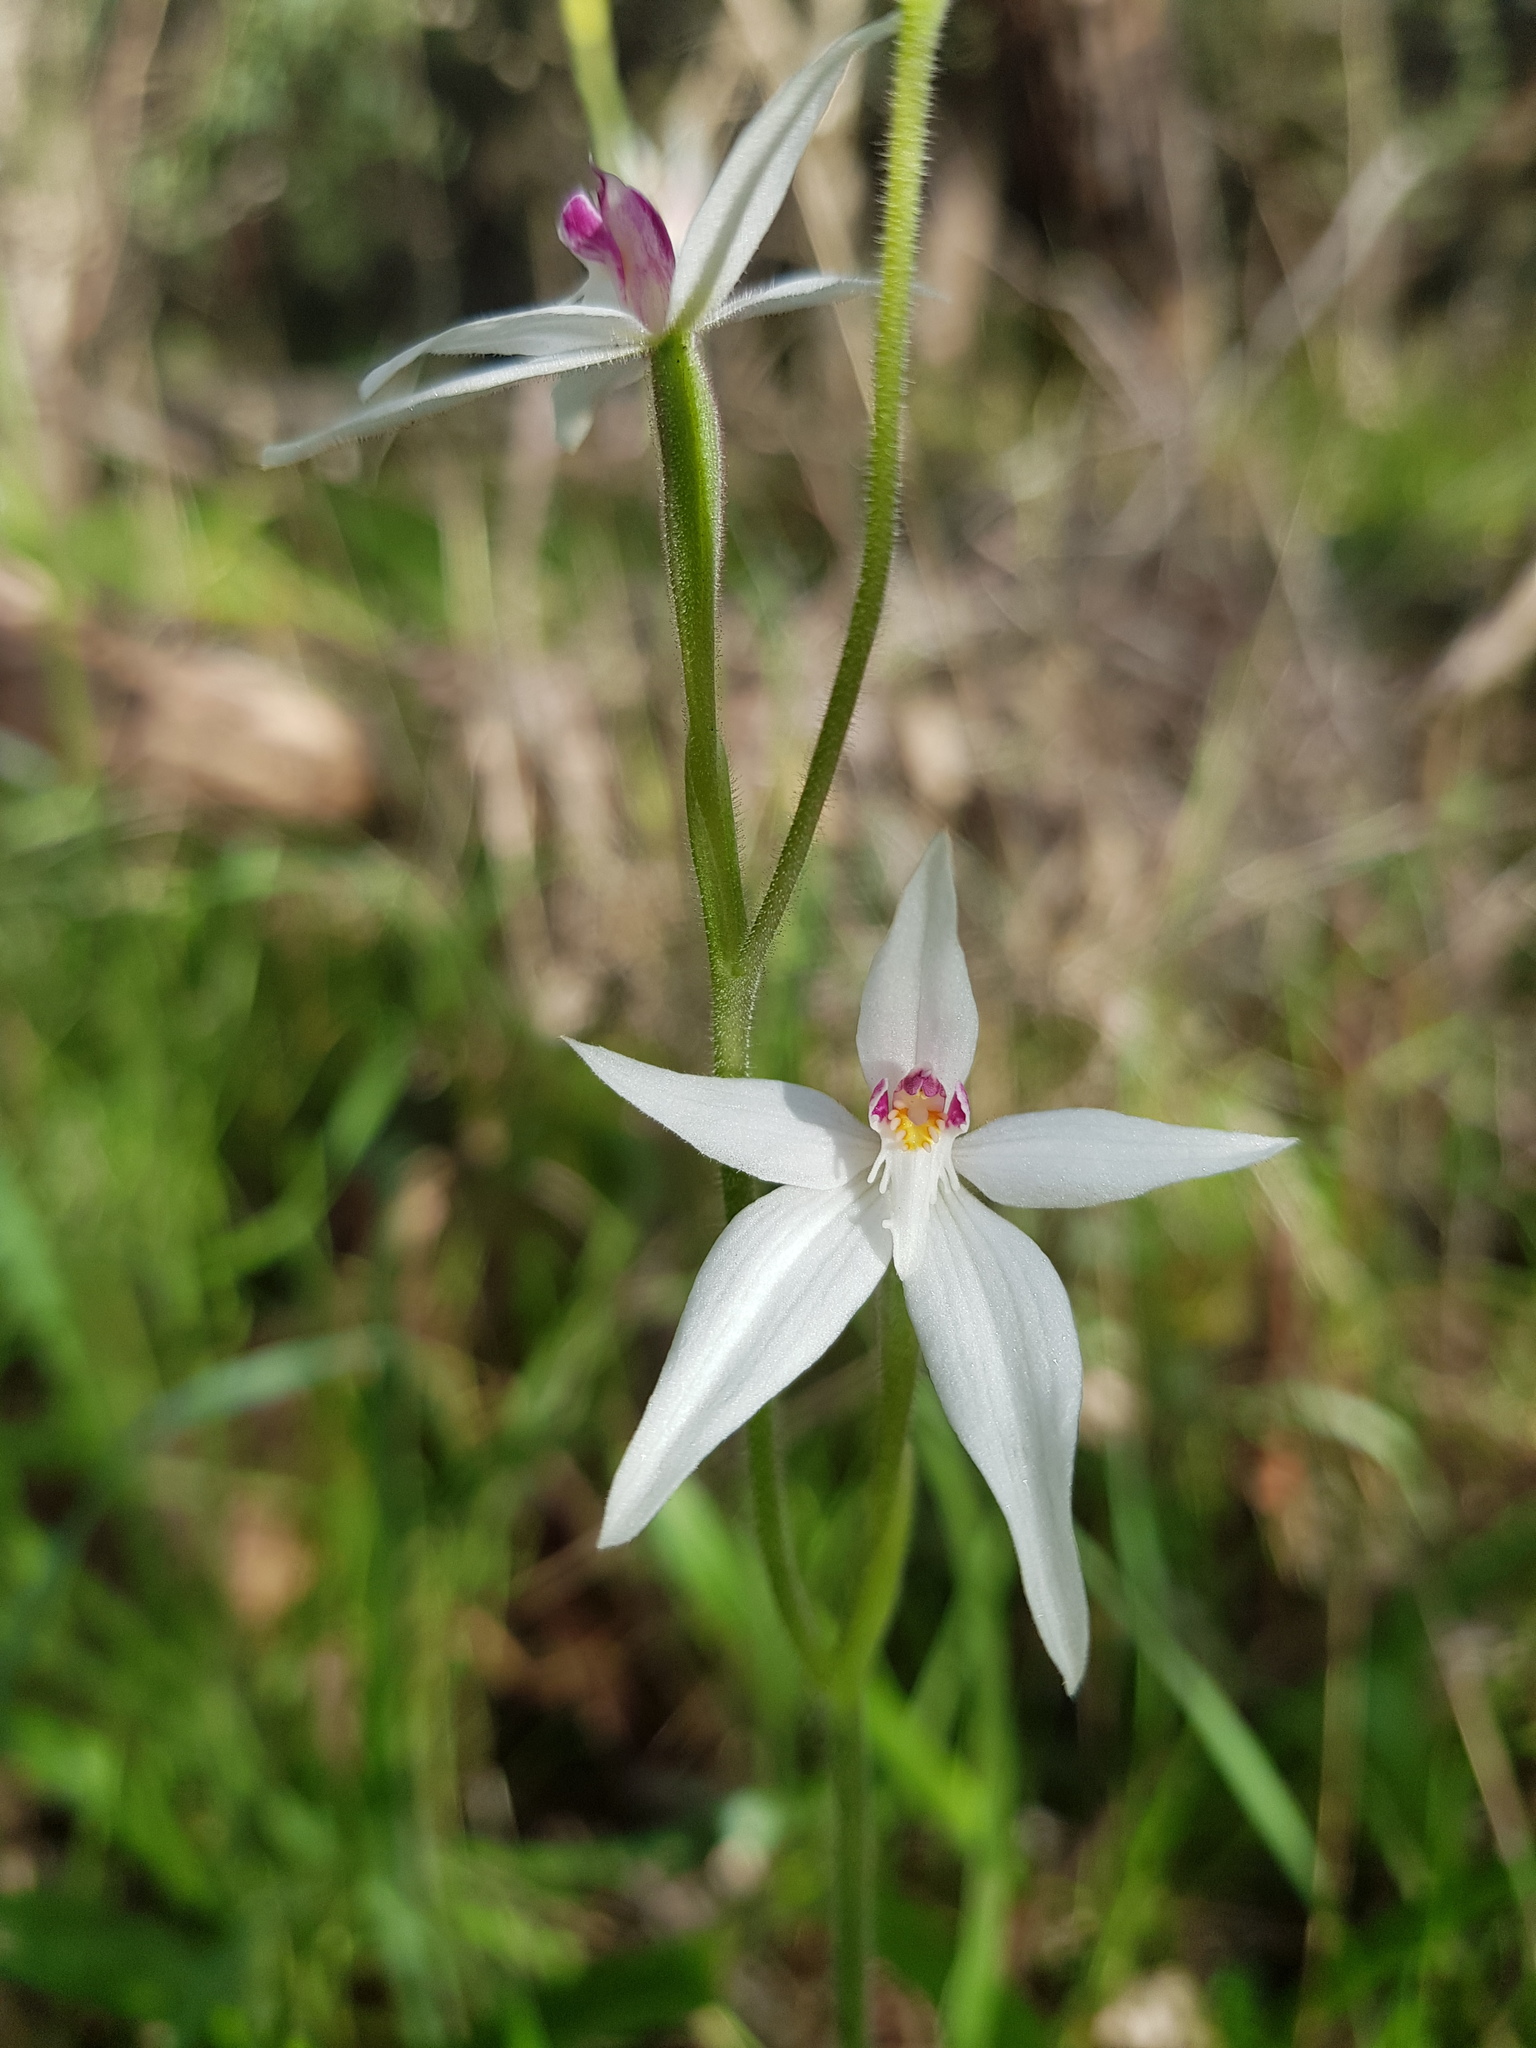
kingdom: Plantae
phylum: Tracheophyta
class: Liliopsida
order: Asparagales
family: Orchidaceae
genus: Caladenia
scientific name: Caladenia latifolia
